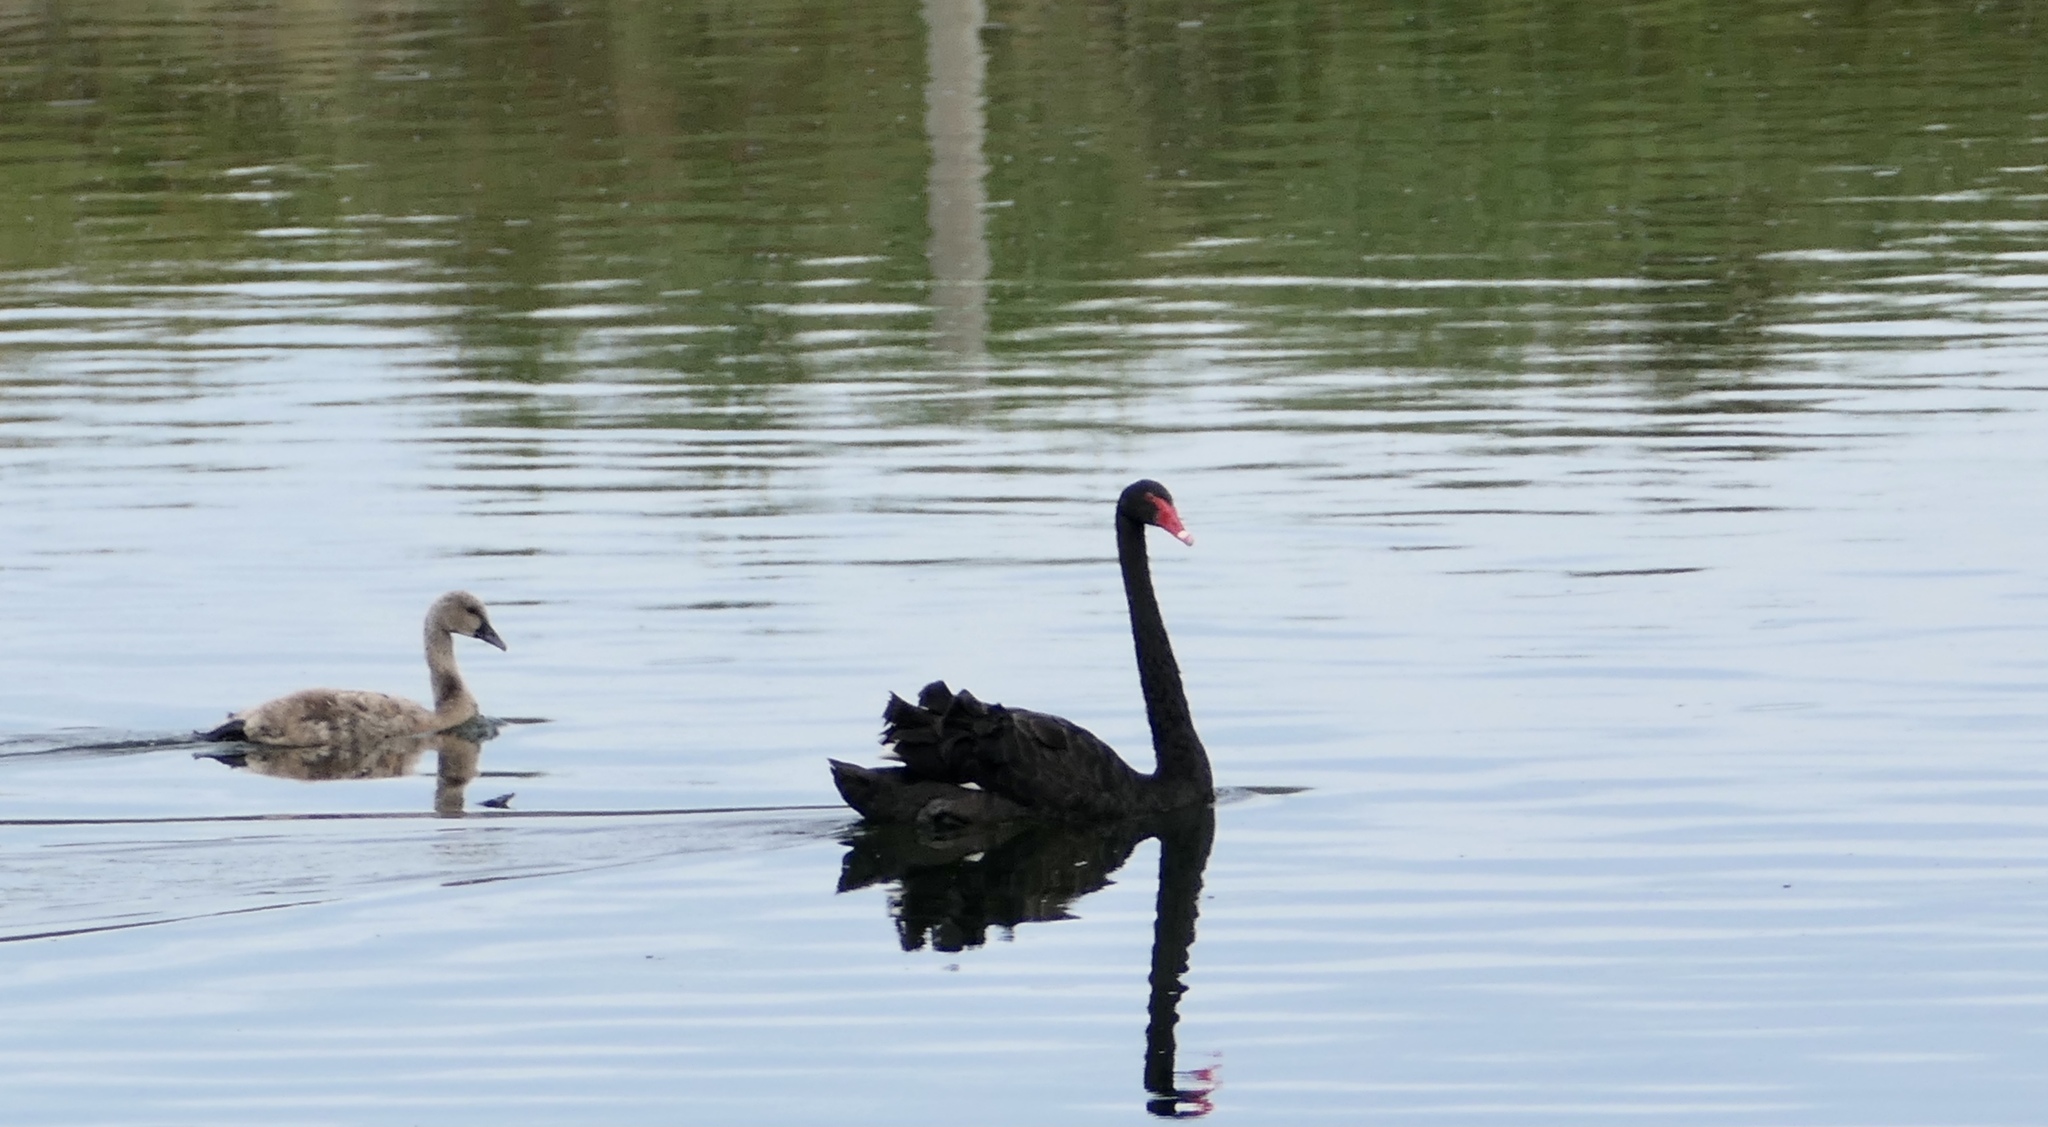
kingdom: Animalia
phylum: Chordata
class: Aves
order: Anseriformes
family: Anatidae
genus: Cygnus
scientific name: Cygnus atratus
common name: Black swan
